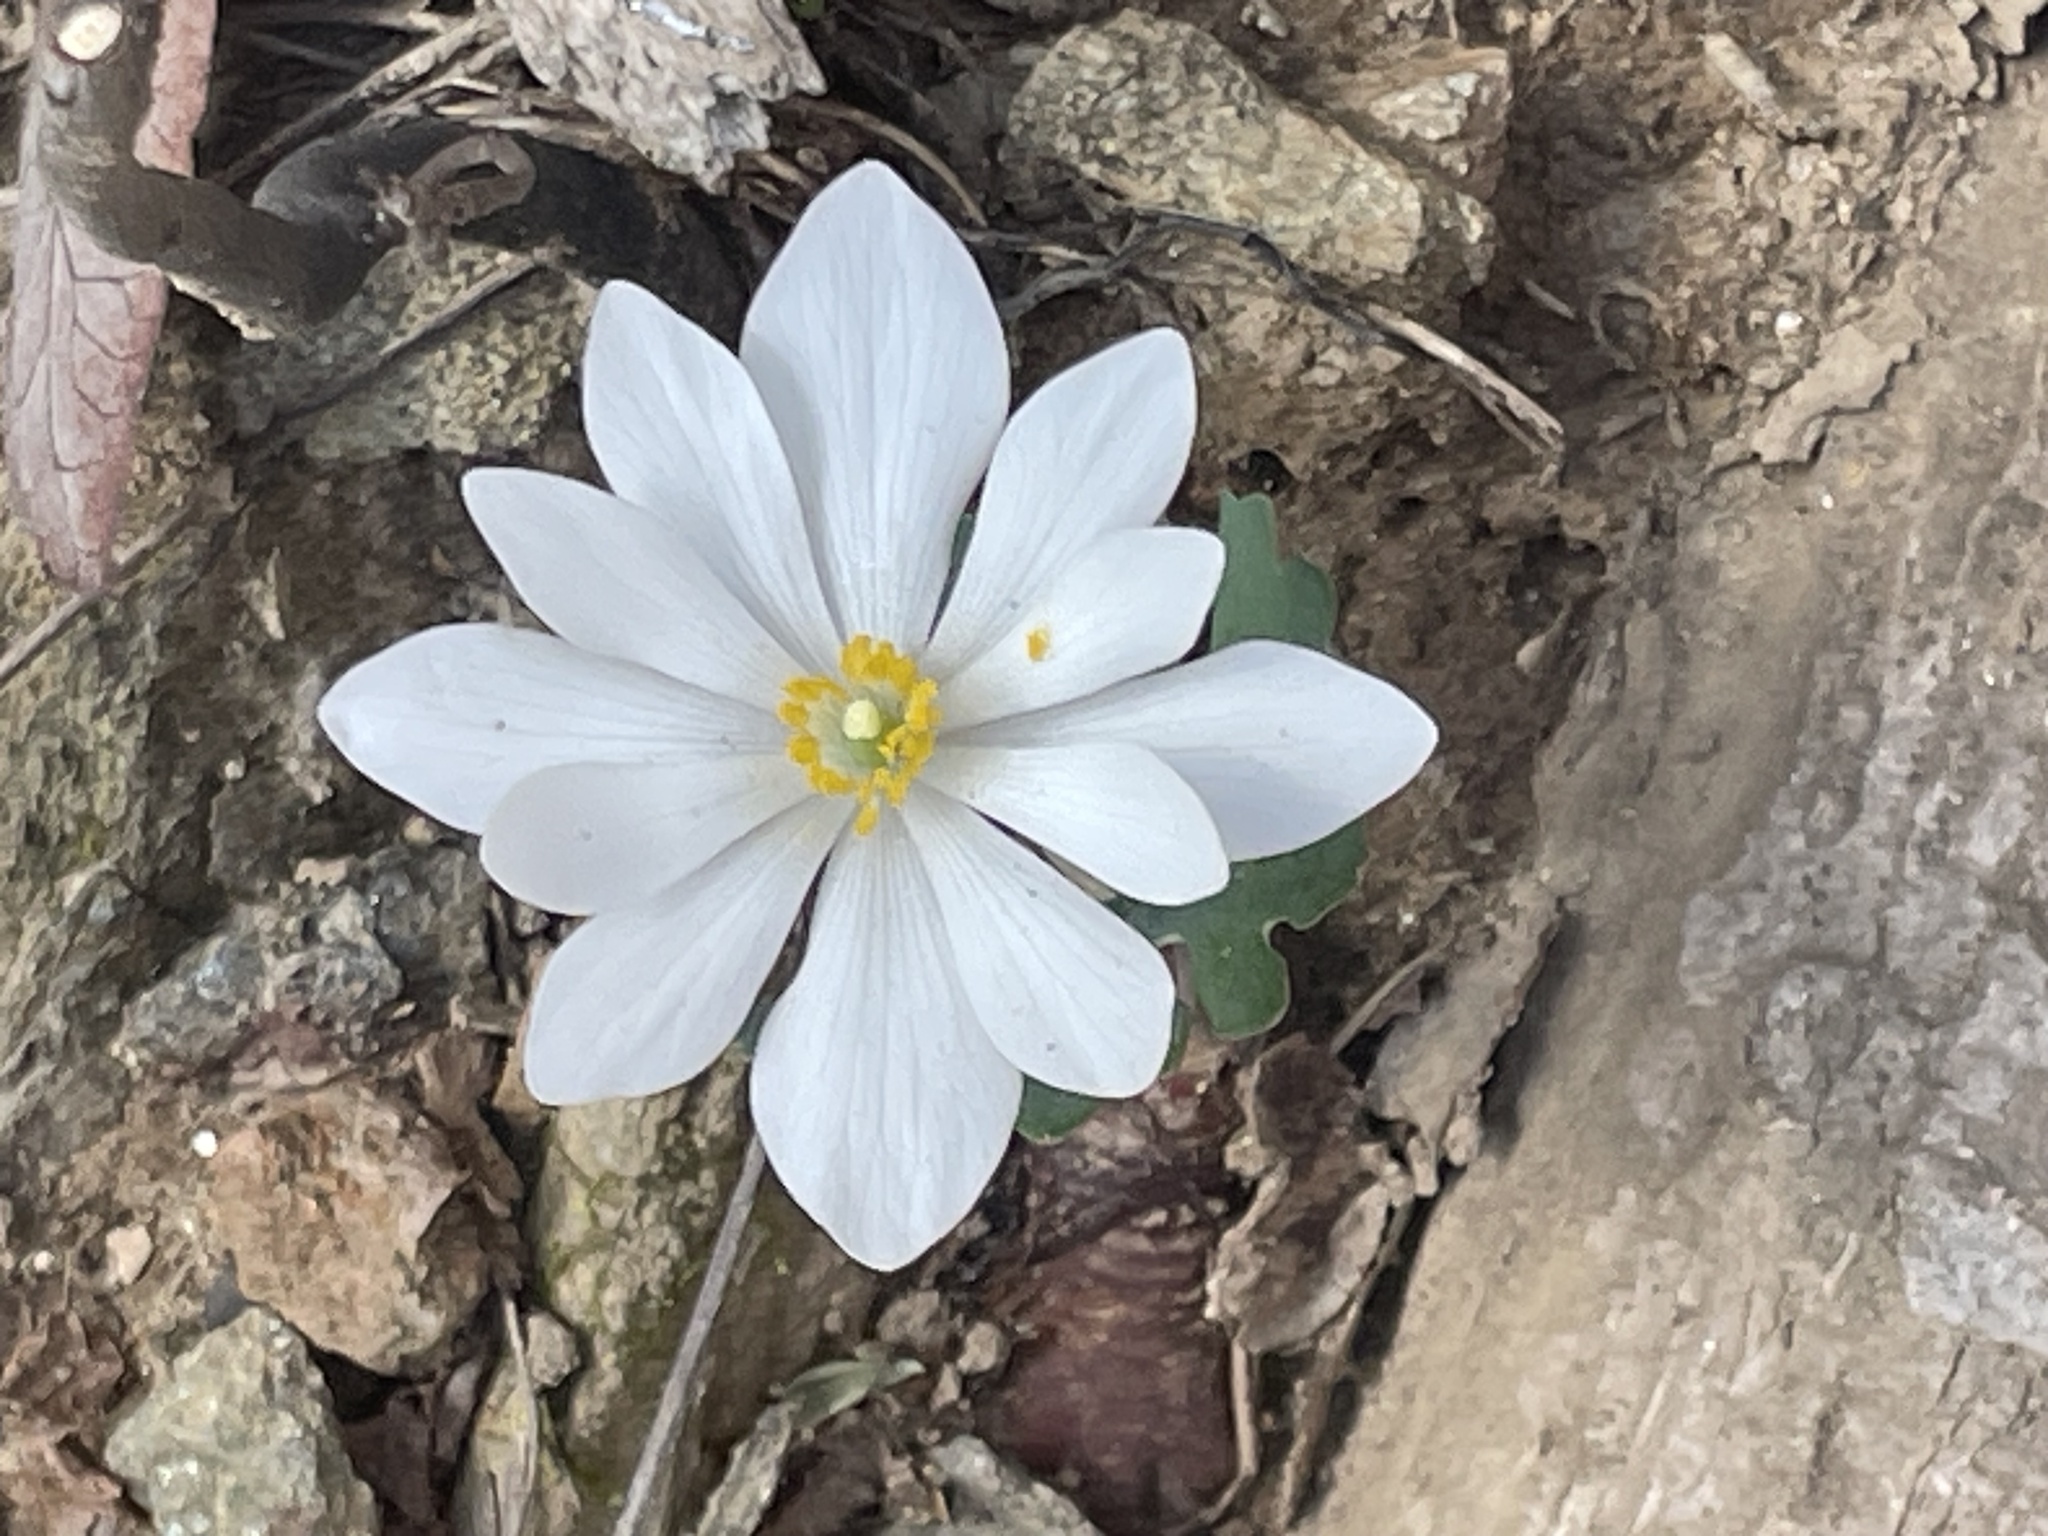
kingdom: Plantae
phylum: Tracheophyta
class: Magnoliopsida
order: Ranunculales
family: Papaveraceae
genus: Sanguinaria
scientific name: Sanguinaria canadensis
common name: Bloodroot
